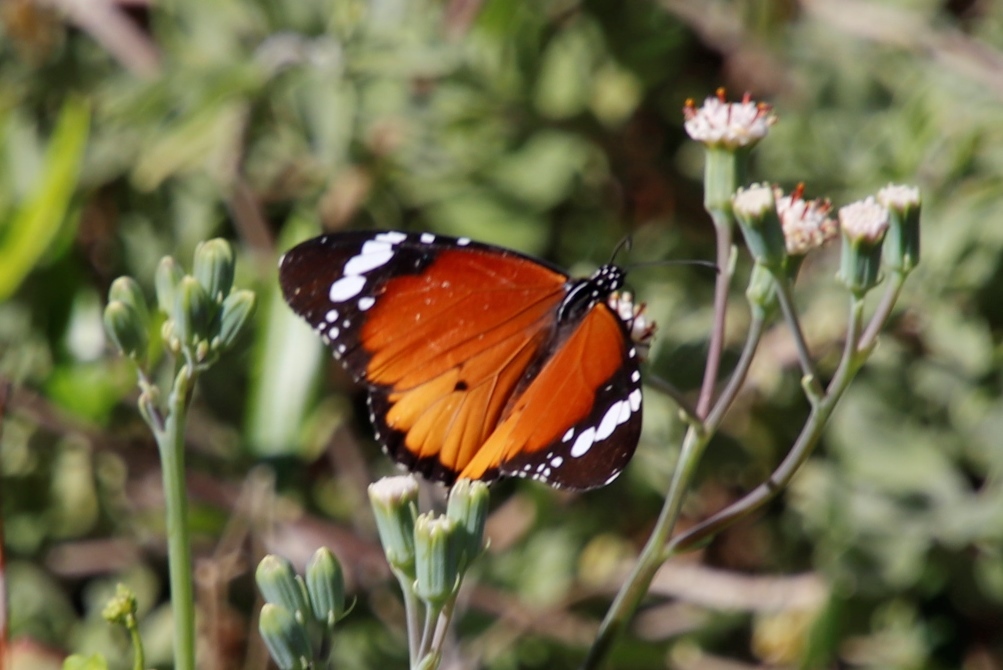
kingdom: Animalia
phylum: Arthropoda
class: Insecta
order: Lepidoptera
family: Nymphalidae
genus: Danaus
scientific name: Danaus chrysippus
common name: Plain tiger
